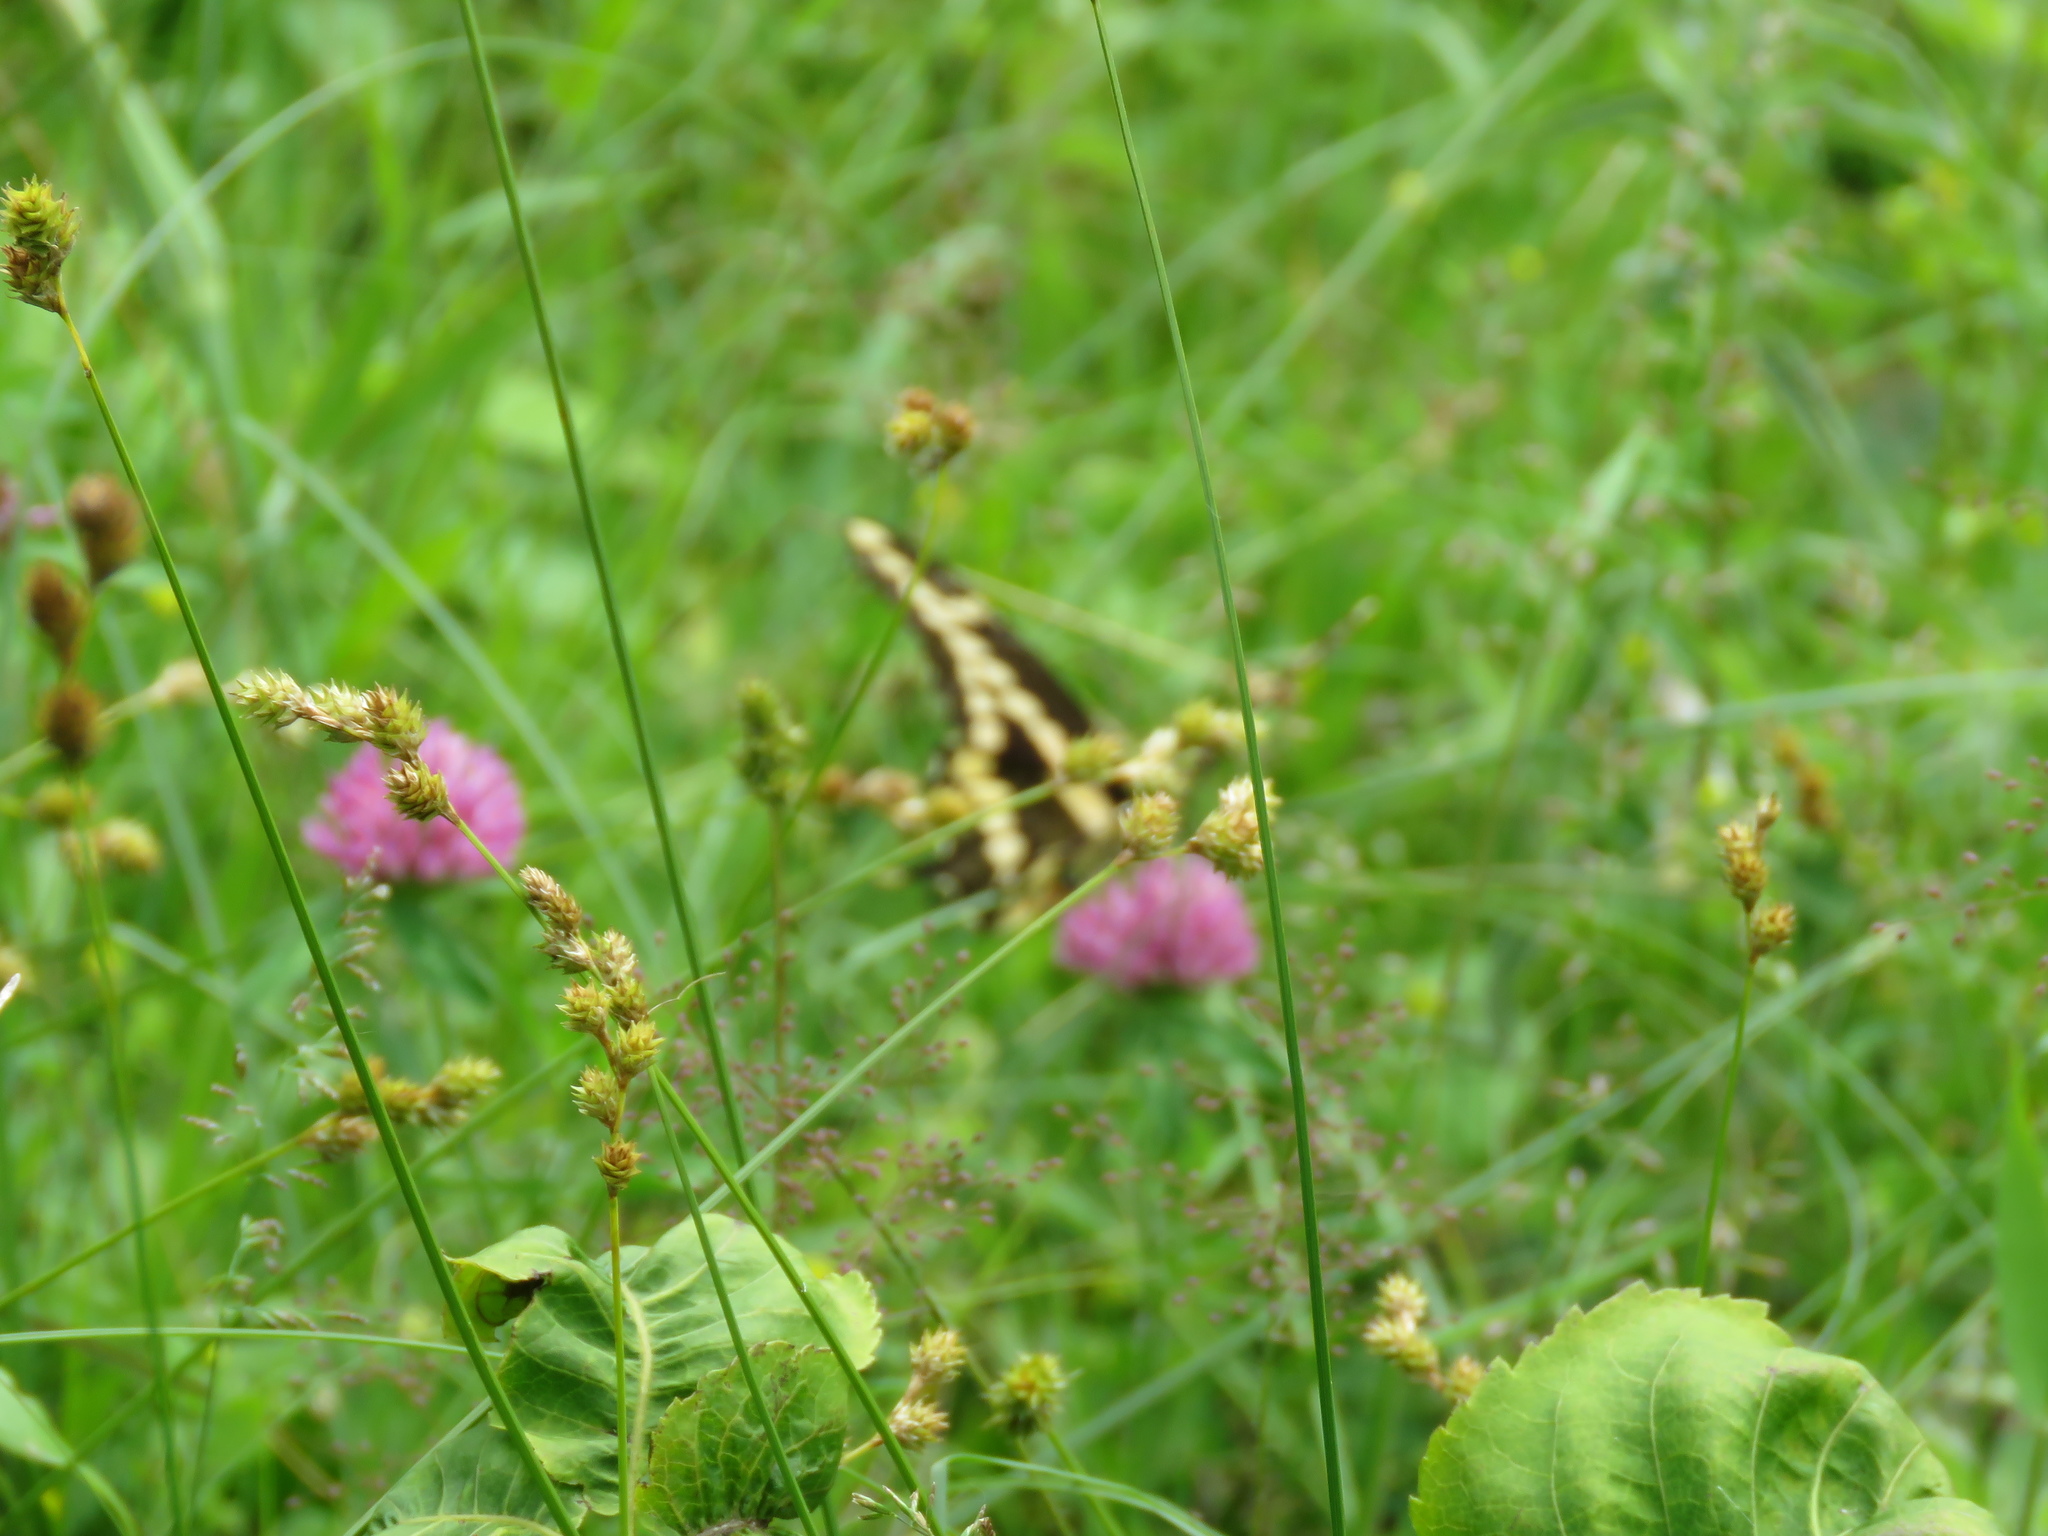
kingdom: Animalia
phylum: Arthropoda
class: Insecta
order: Lepidoptera
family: Papilionidae
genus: Papilio
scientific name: Papilio cresphontes
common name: Giant swallowtail
